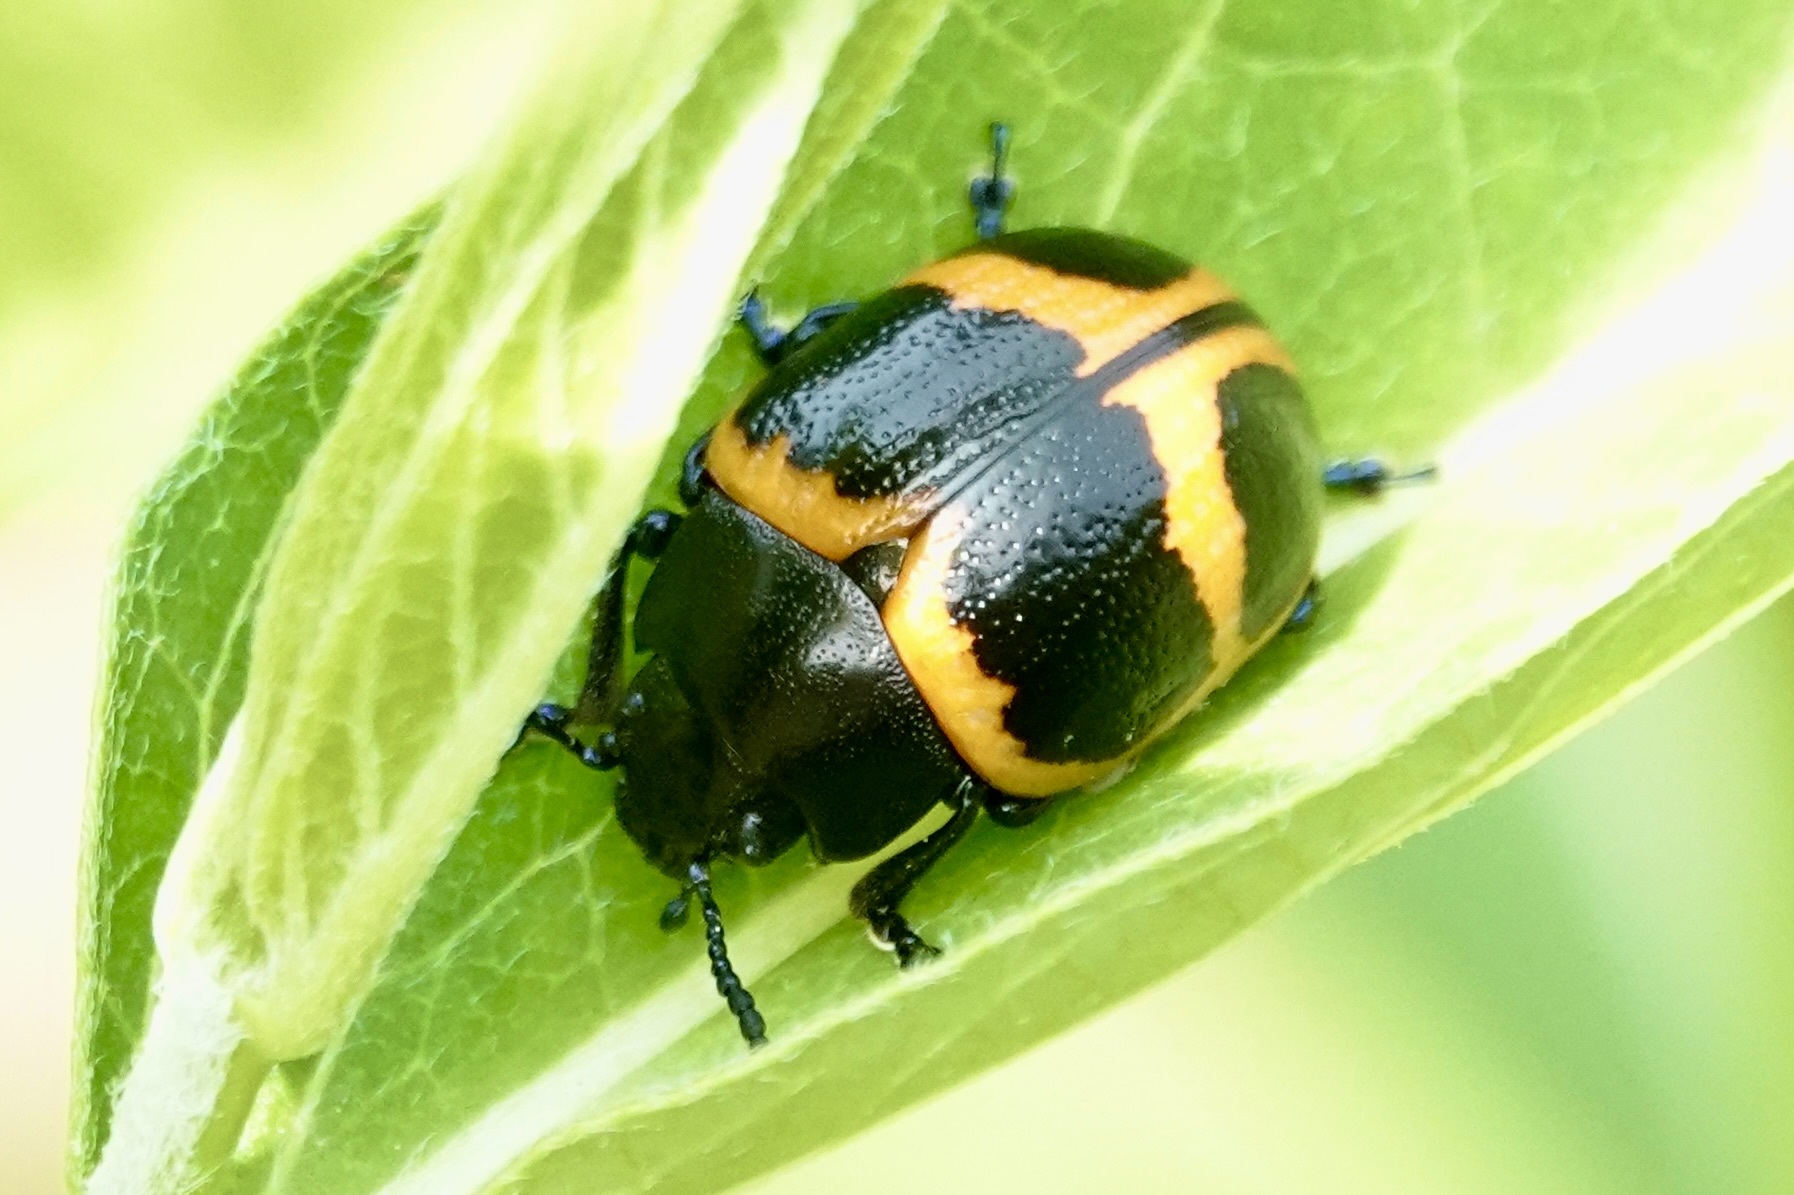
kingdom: Animalia
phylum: Arthropoda
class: Insecta
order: Coleoptera
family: Chrysomelidae
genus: Labidomera
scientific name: Labidomera clivicollis
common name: Swamp milkweed leaf beetle
